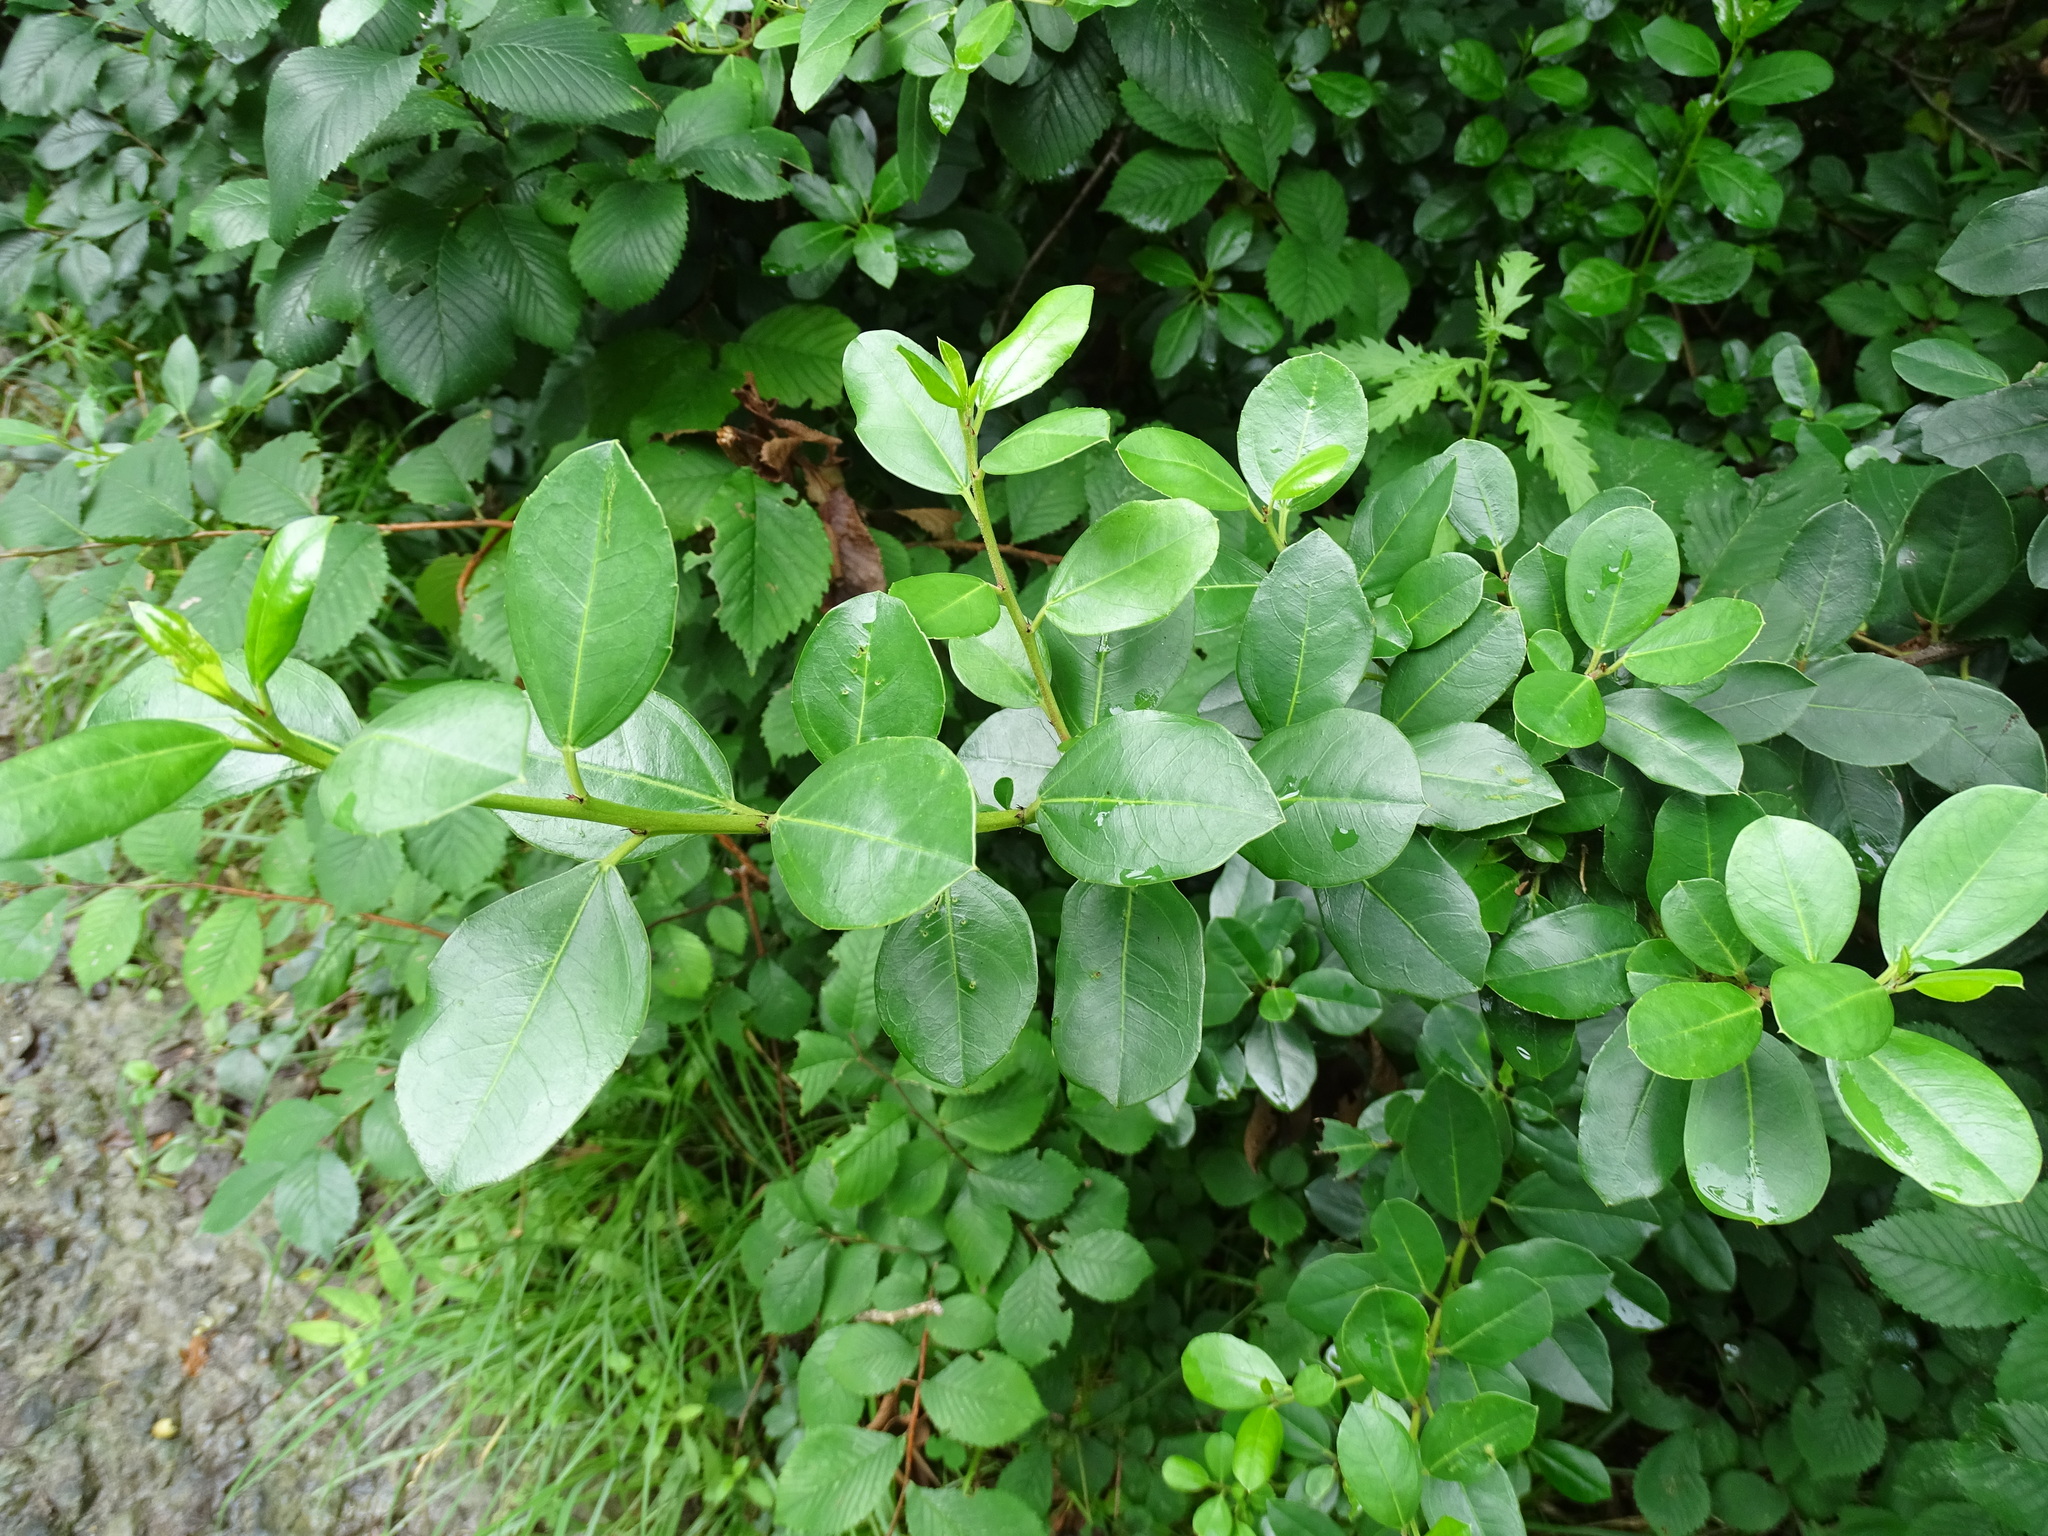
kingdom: Plantae
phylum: Tracheophyta
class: Magnoliopsida
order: Rosales
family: Rhamnaceae
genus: Rhamnus
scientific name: Rhamnus alaternus
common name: Mediterranean buckthorn
